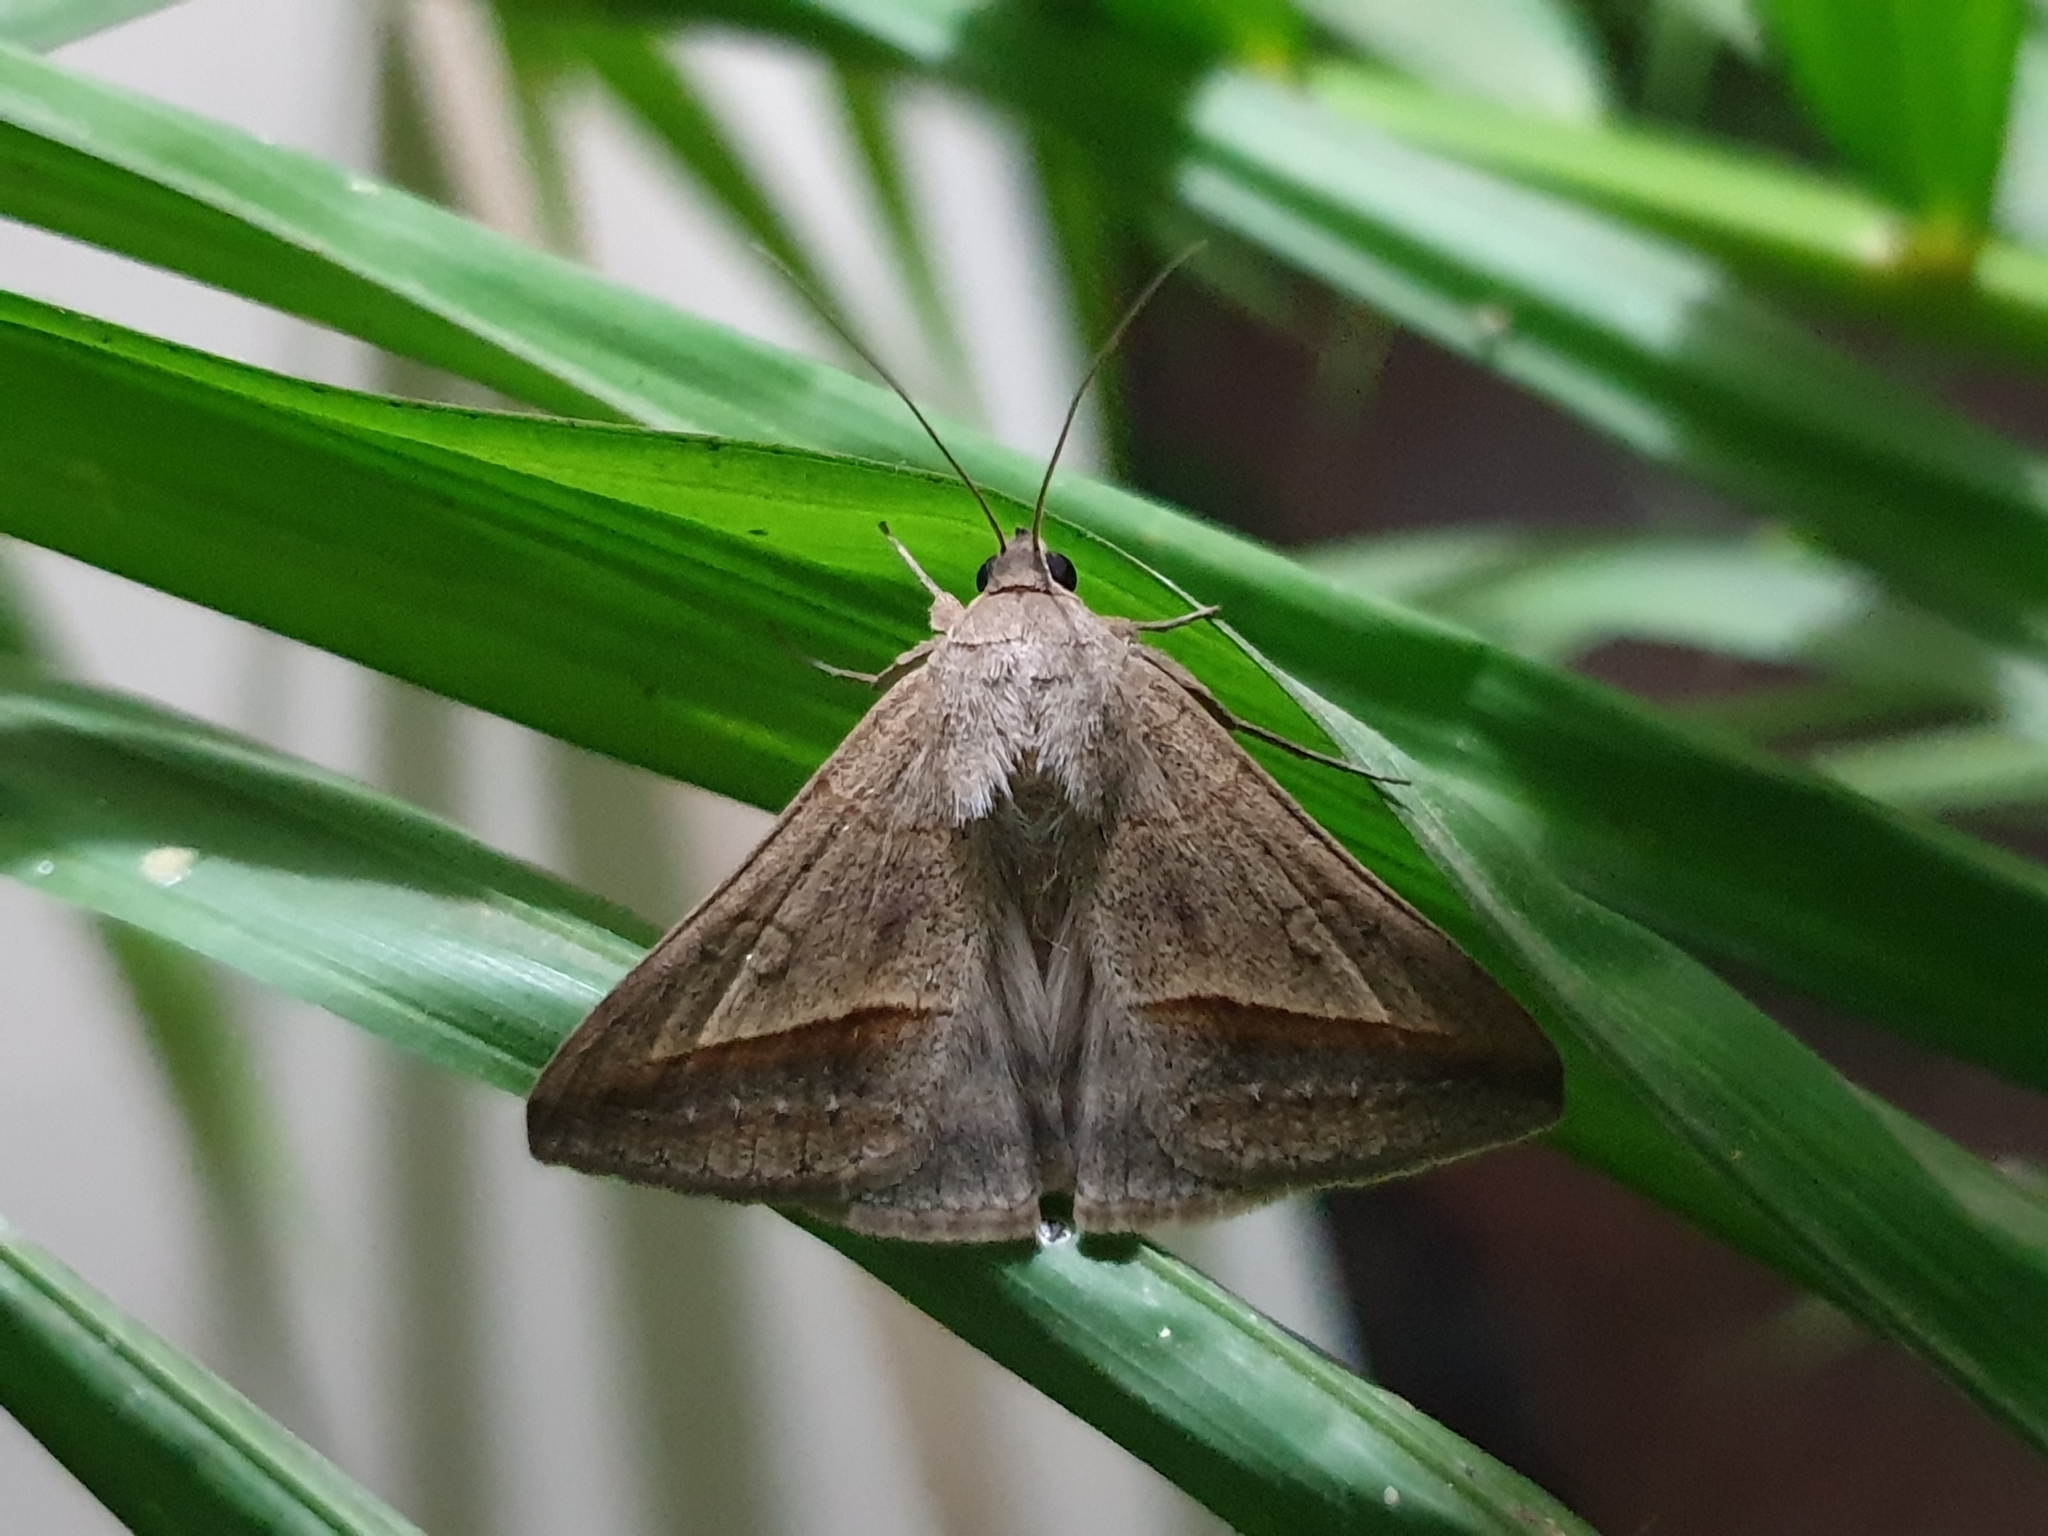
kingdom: Animalia
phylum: Arthropoda
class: Insecta
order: Lepidoptera
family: Erebidae
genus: Mocis
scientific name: Mocis frugalis
